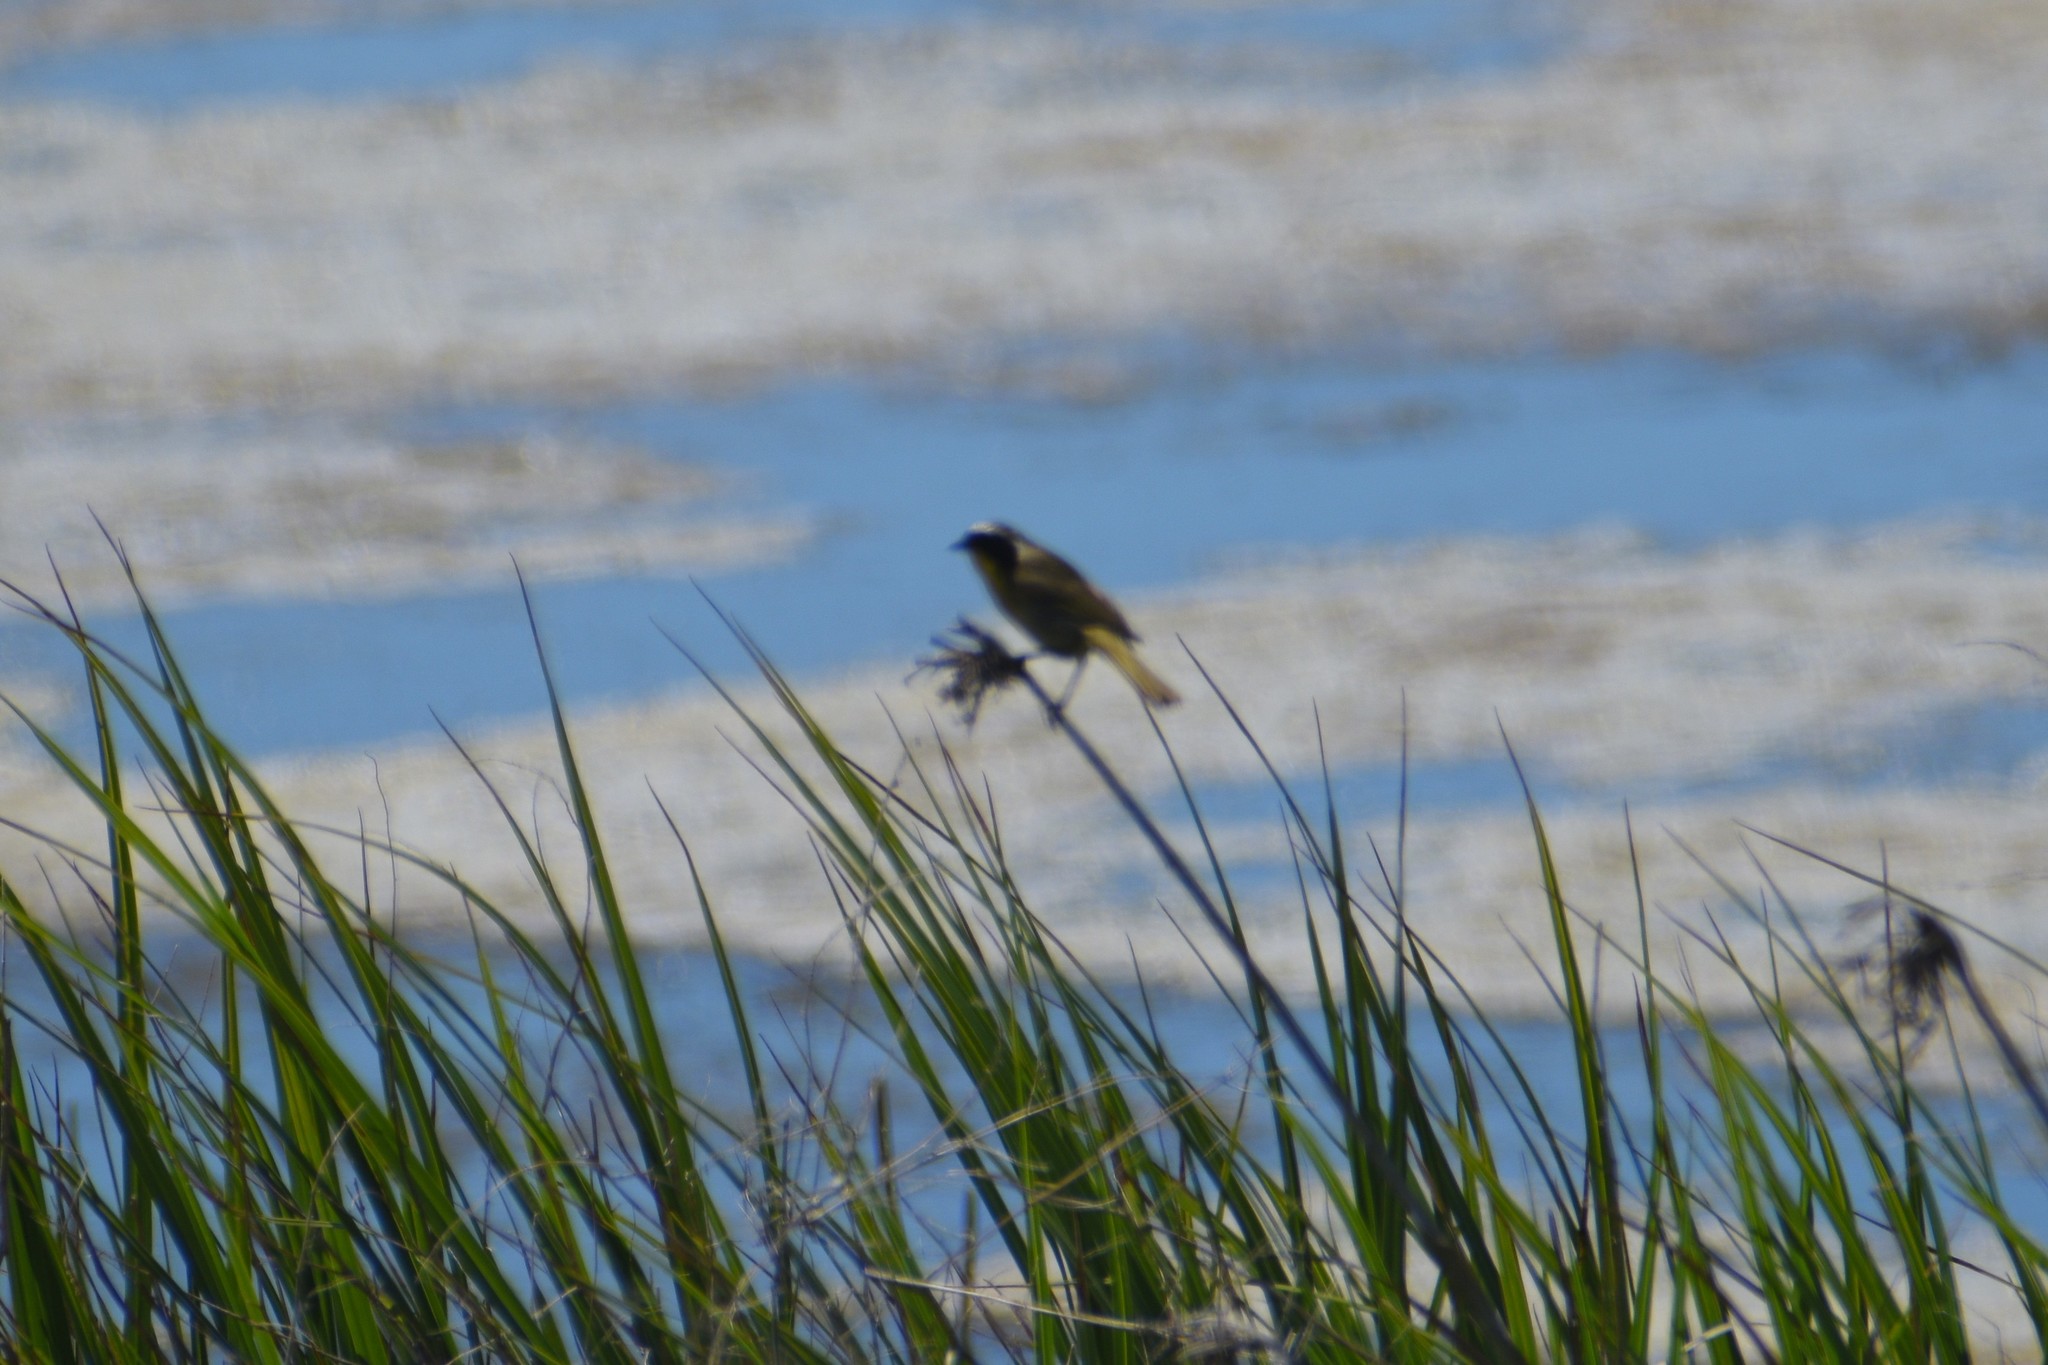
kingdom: Animalia
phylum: Chordata
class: Aves
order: Passeriformes
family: Parulidae
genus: Geothlypis
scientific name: Geothlypis trichas
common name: Common yellowthroat
